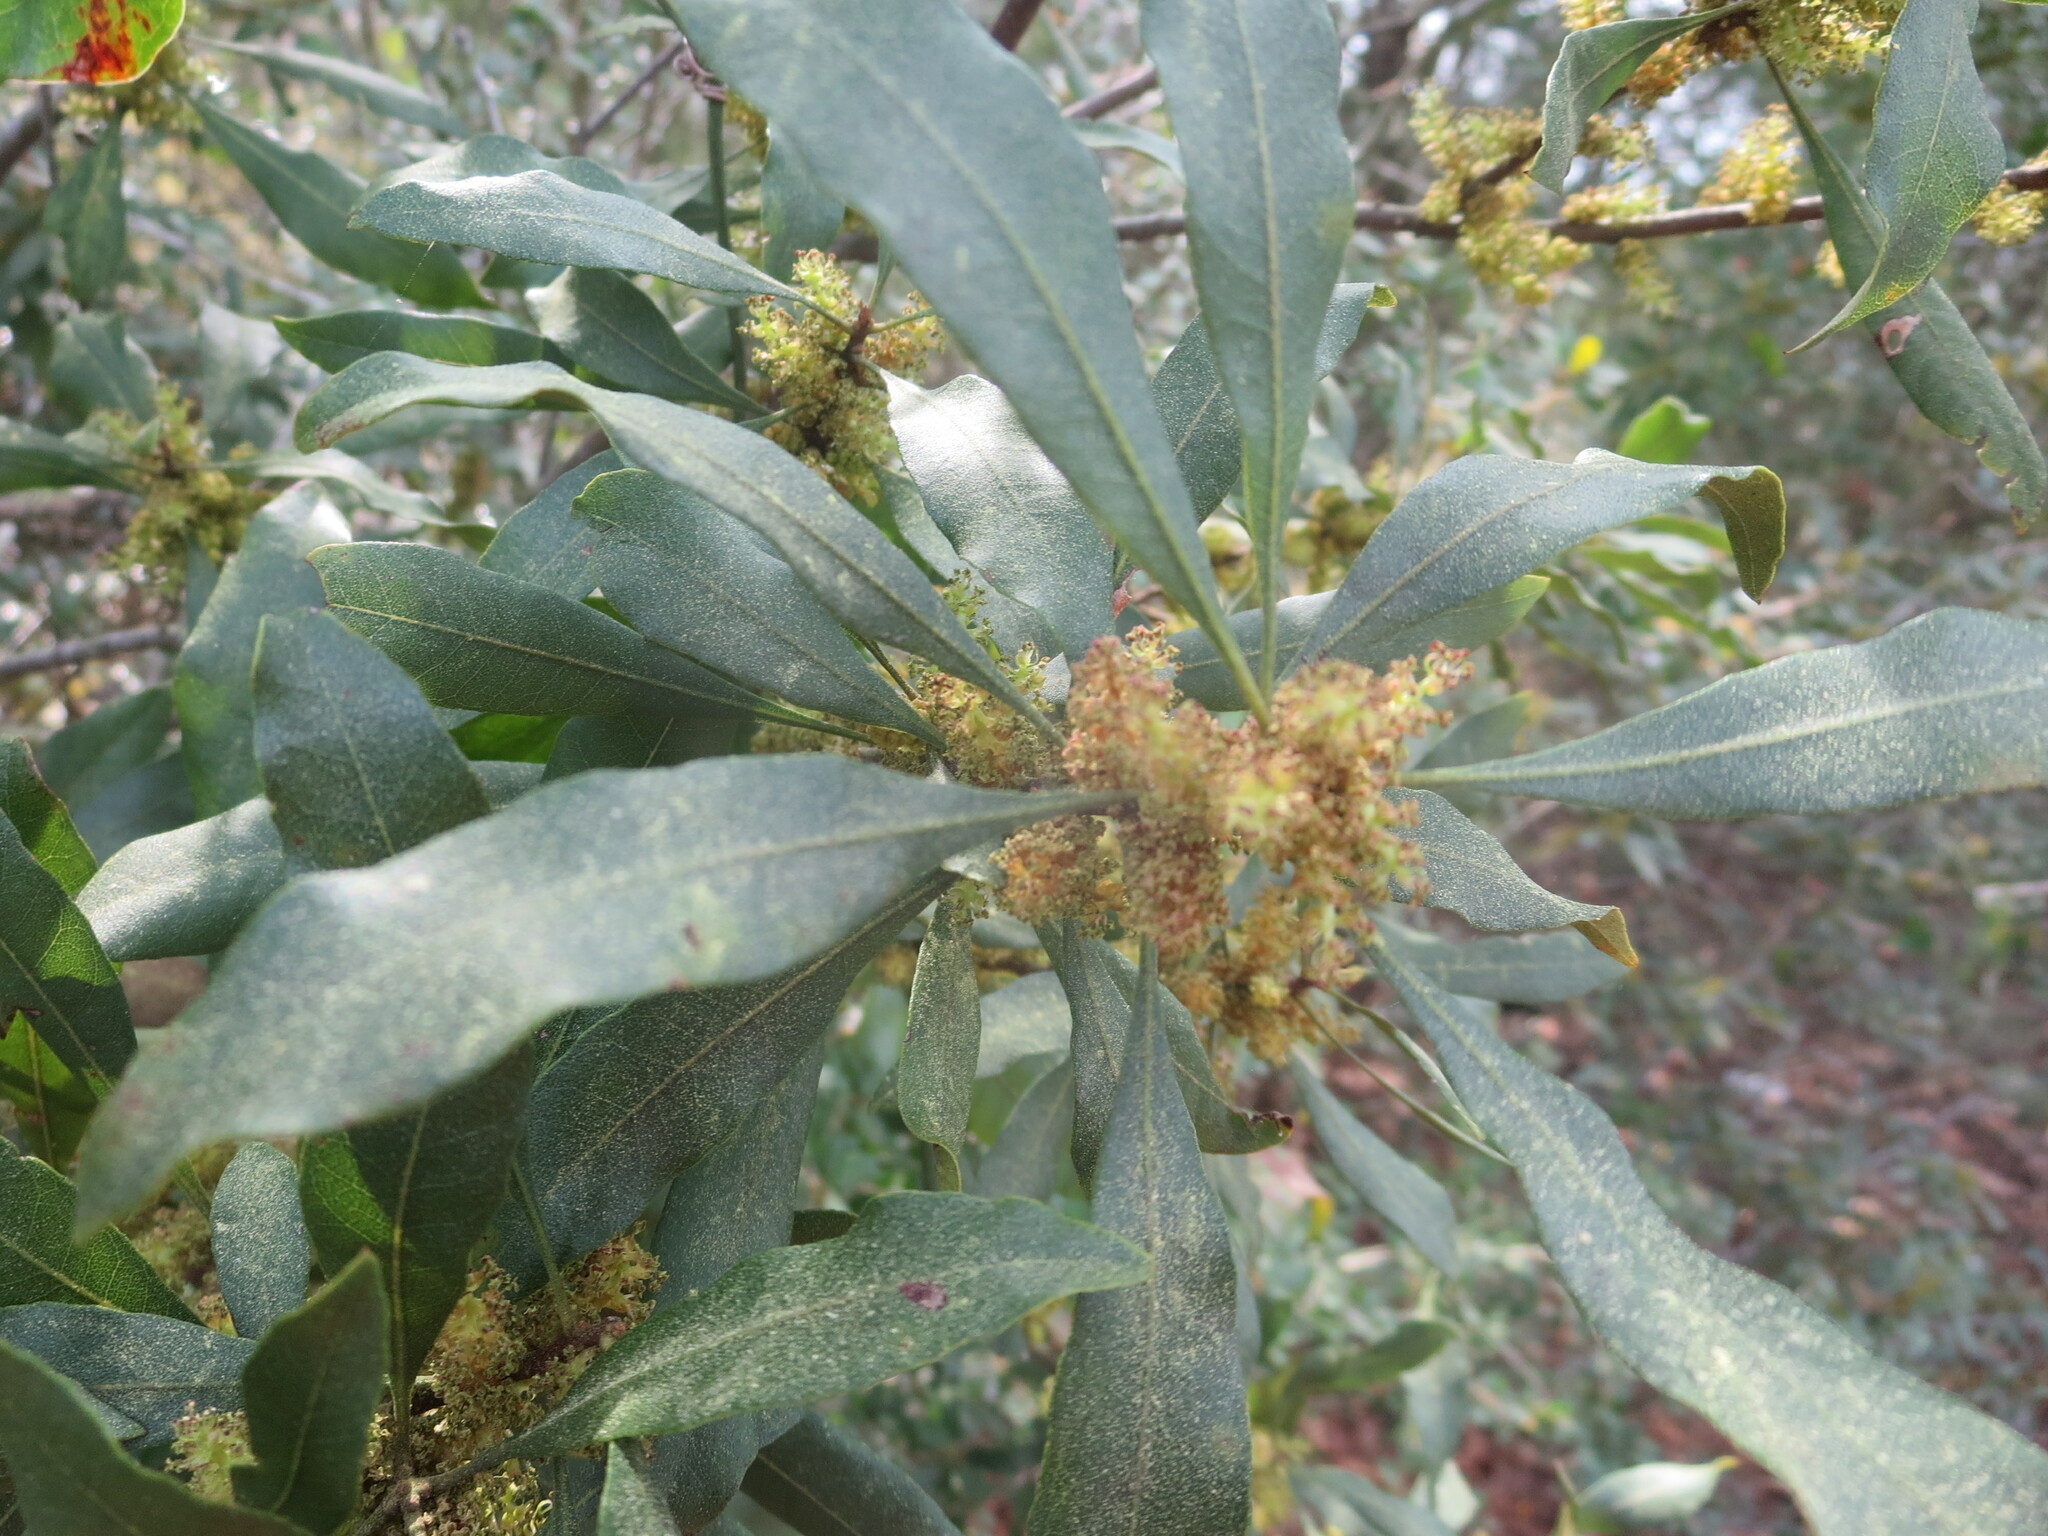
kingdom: Plantae
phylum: Tracheophyta
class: Magnoliopsida
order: Fagales
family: Myricaceae
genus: Morella
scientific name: Morella cerifera
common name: Wax myrtle
